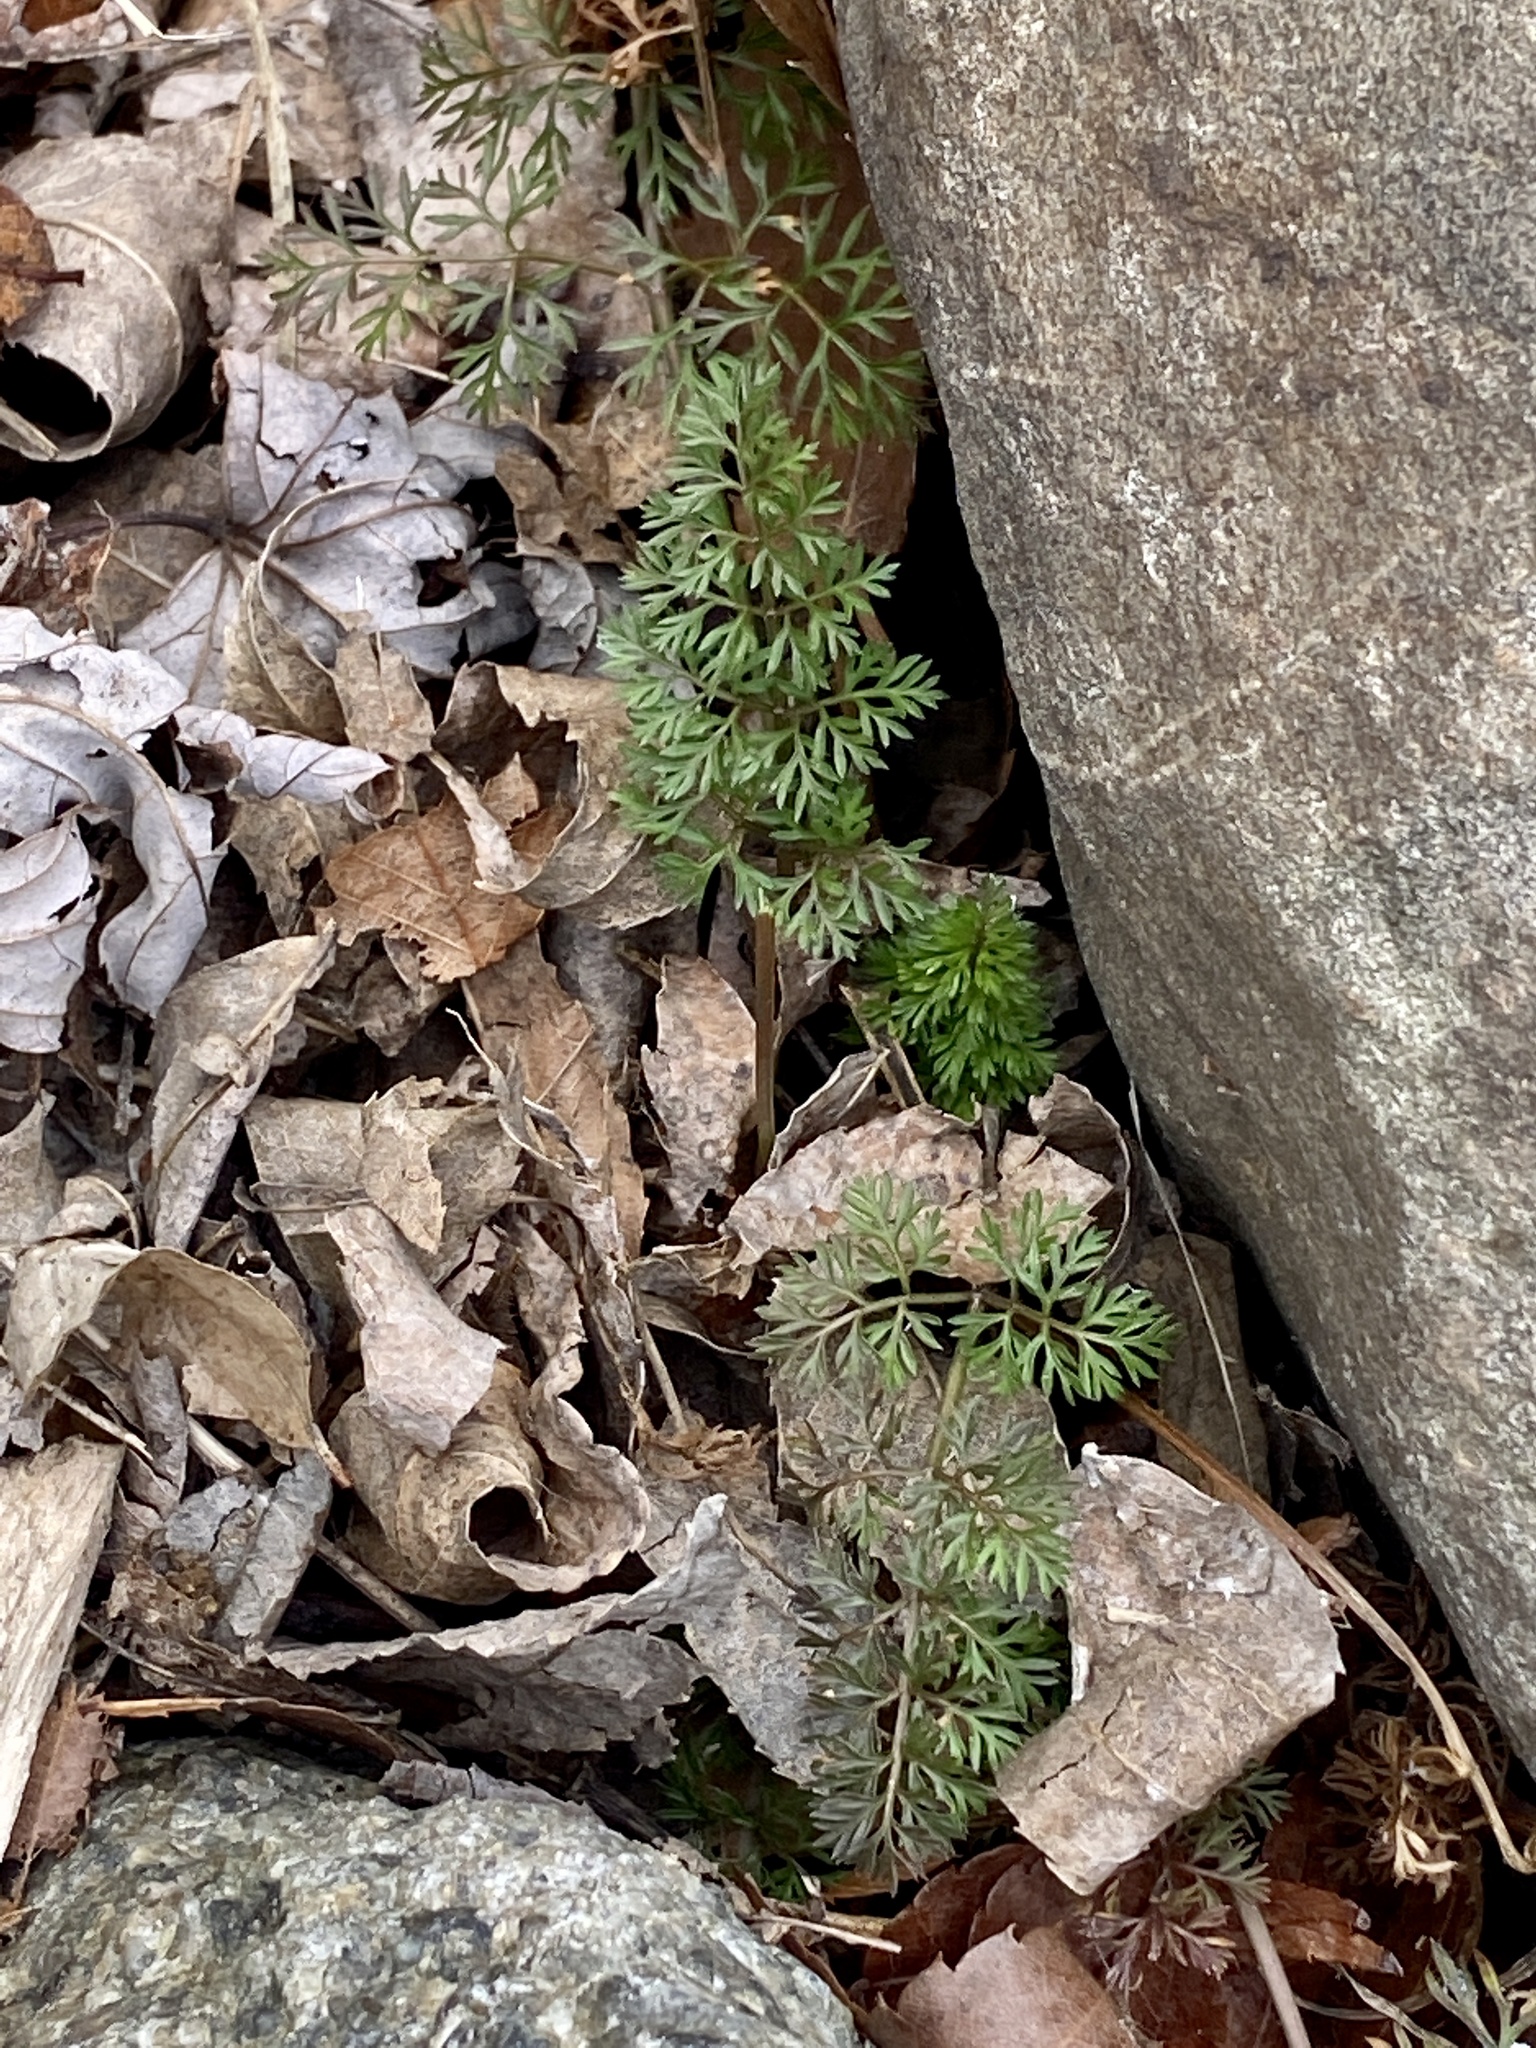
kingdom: Plantae
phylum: Tracheophyta
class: Magnoliopsida
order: Apiales
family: Apiaceae
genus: Daucus
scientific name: Daucus carota
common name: Wild carrot
